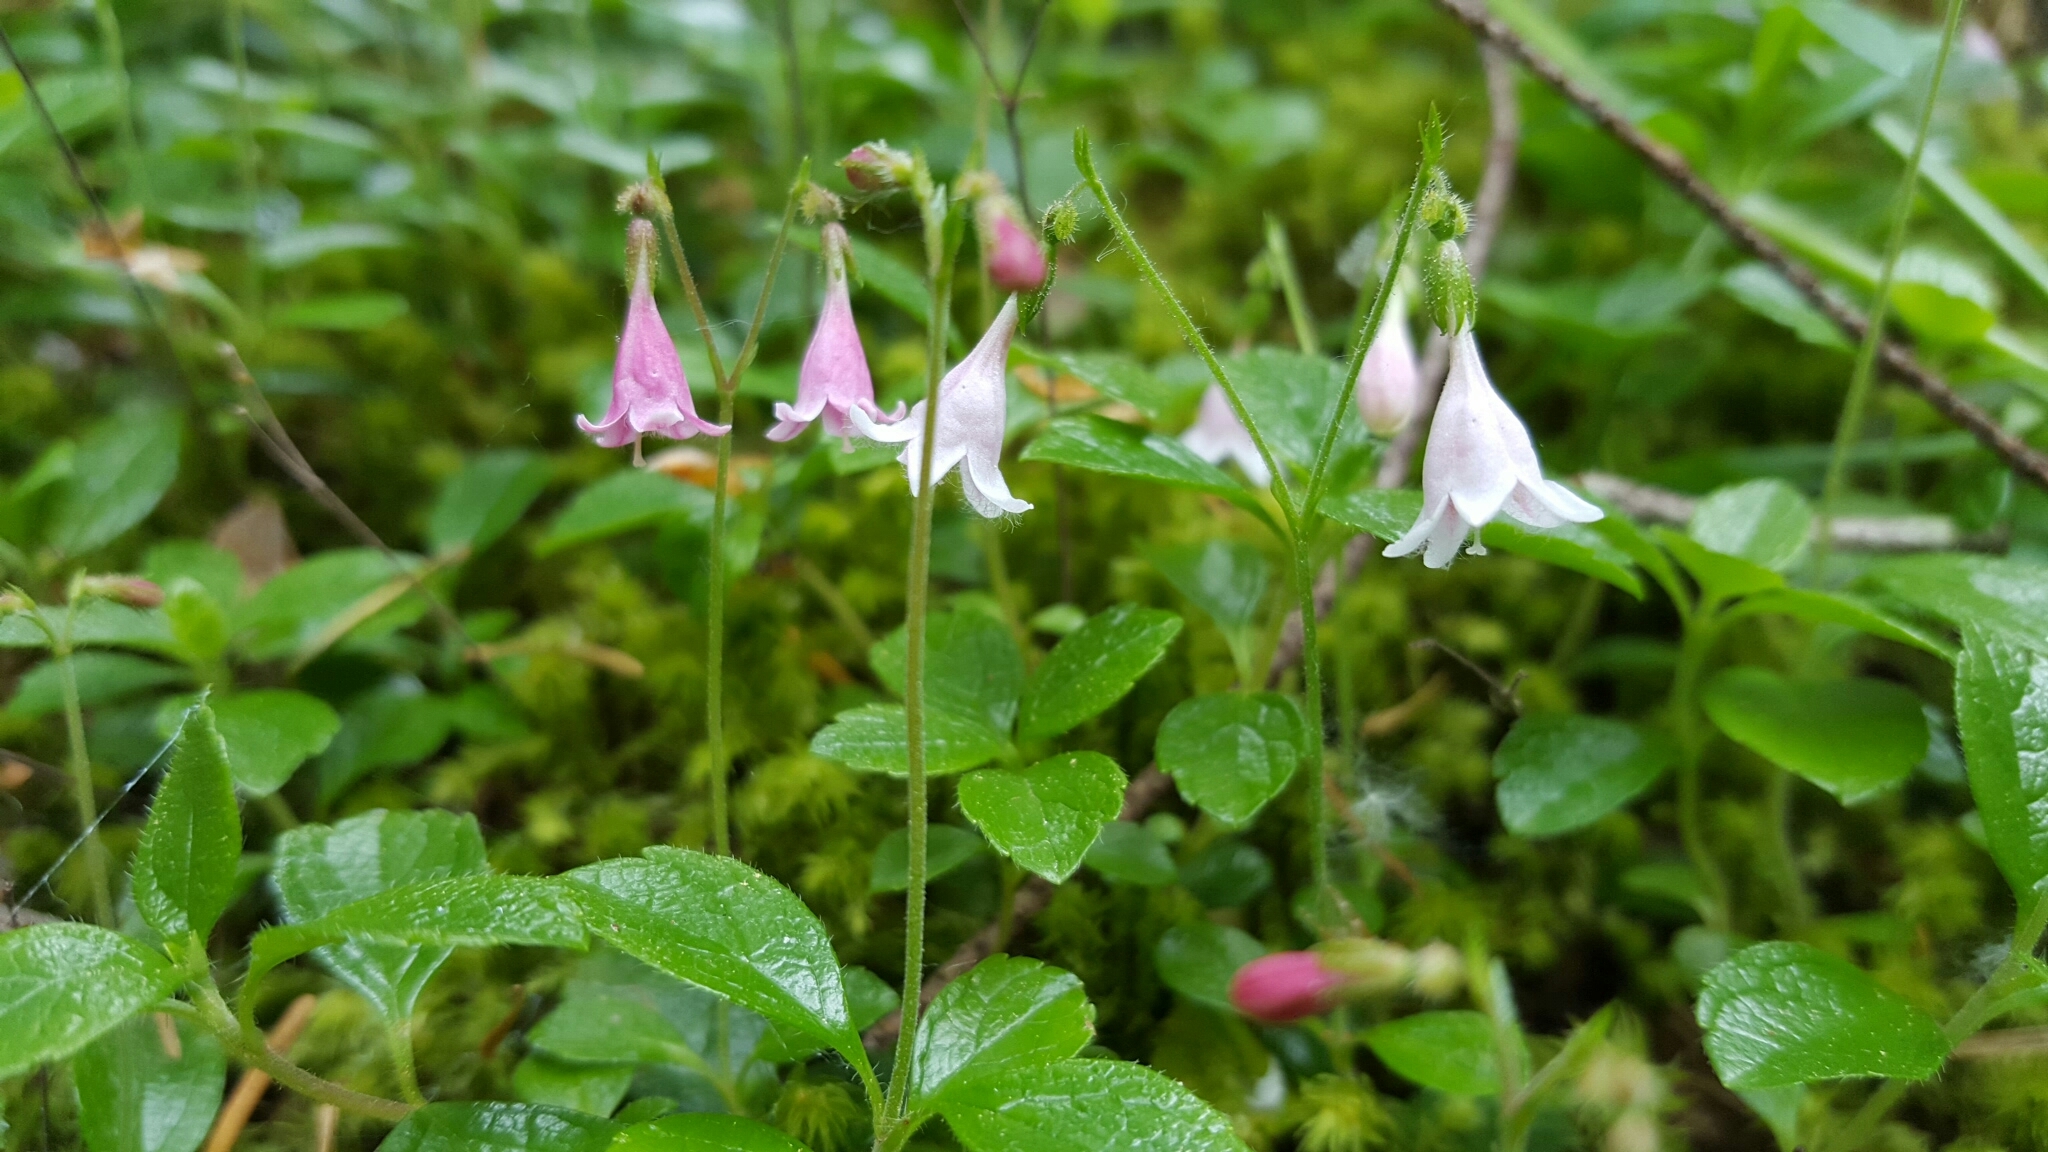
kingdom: Plantae
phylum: Tracheophyta
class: Magnoliopsida
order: Dipsacales
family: Caprifoliaceae
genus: Linnaea
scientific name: Linnaea borealis
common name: Twinflower
